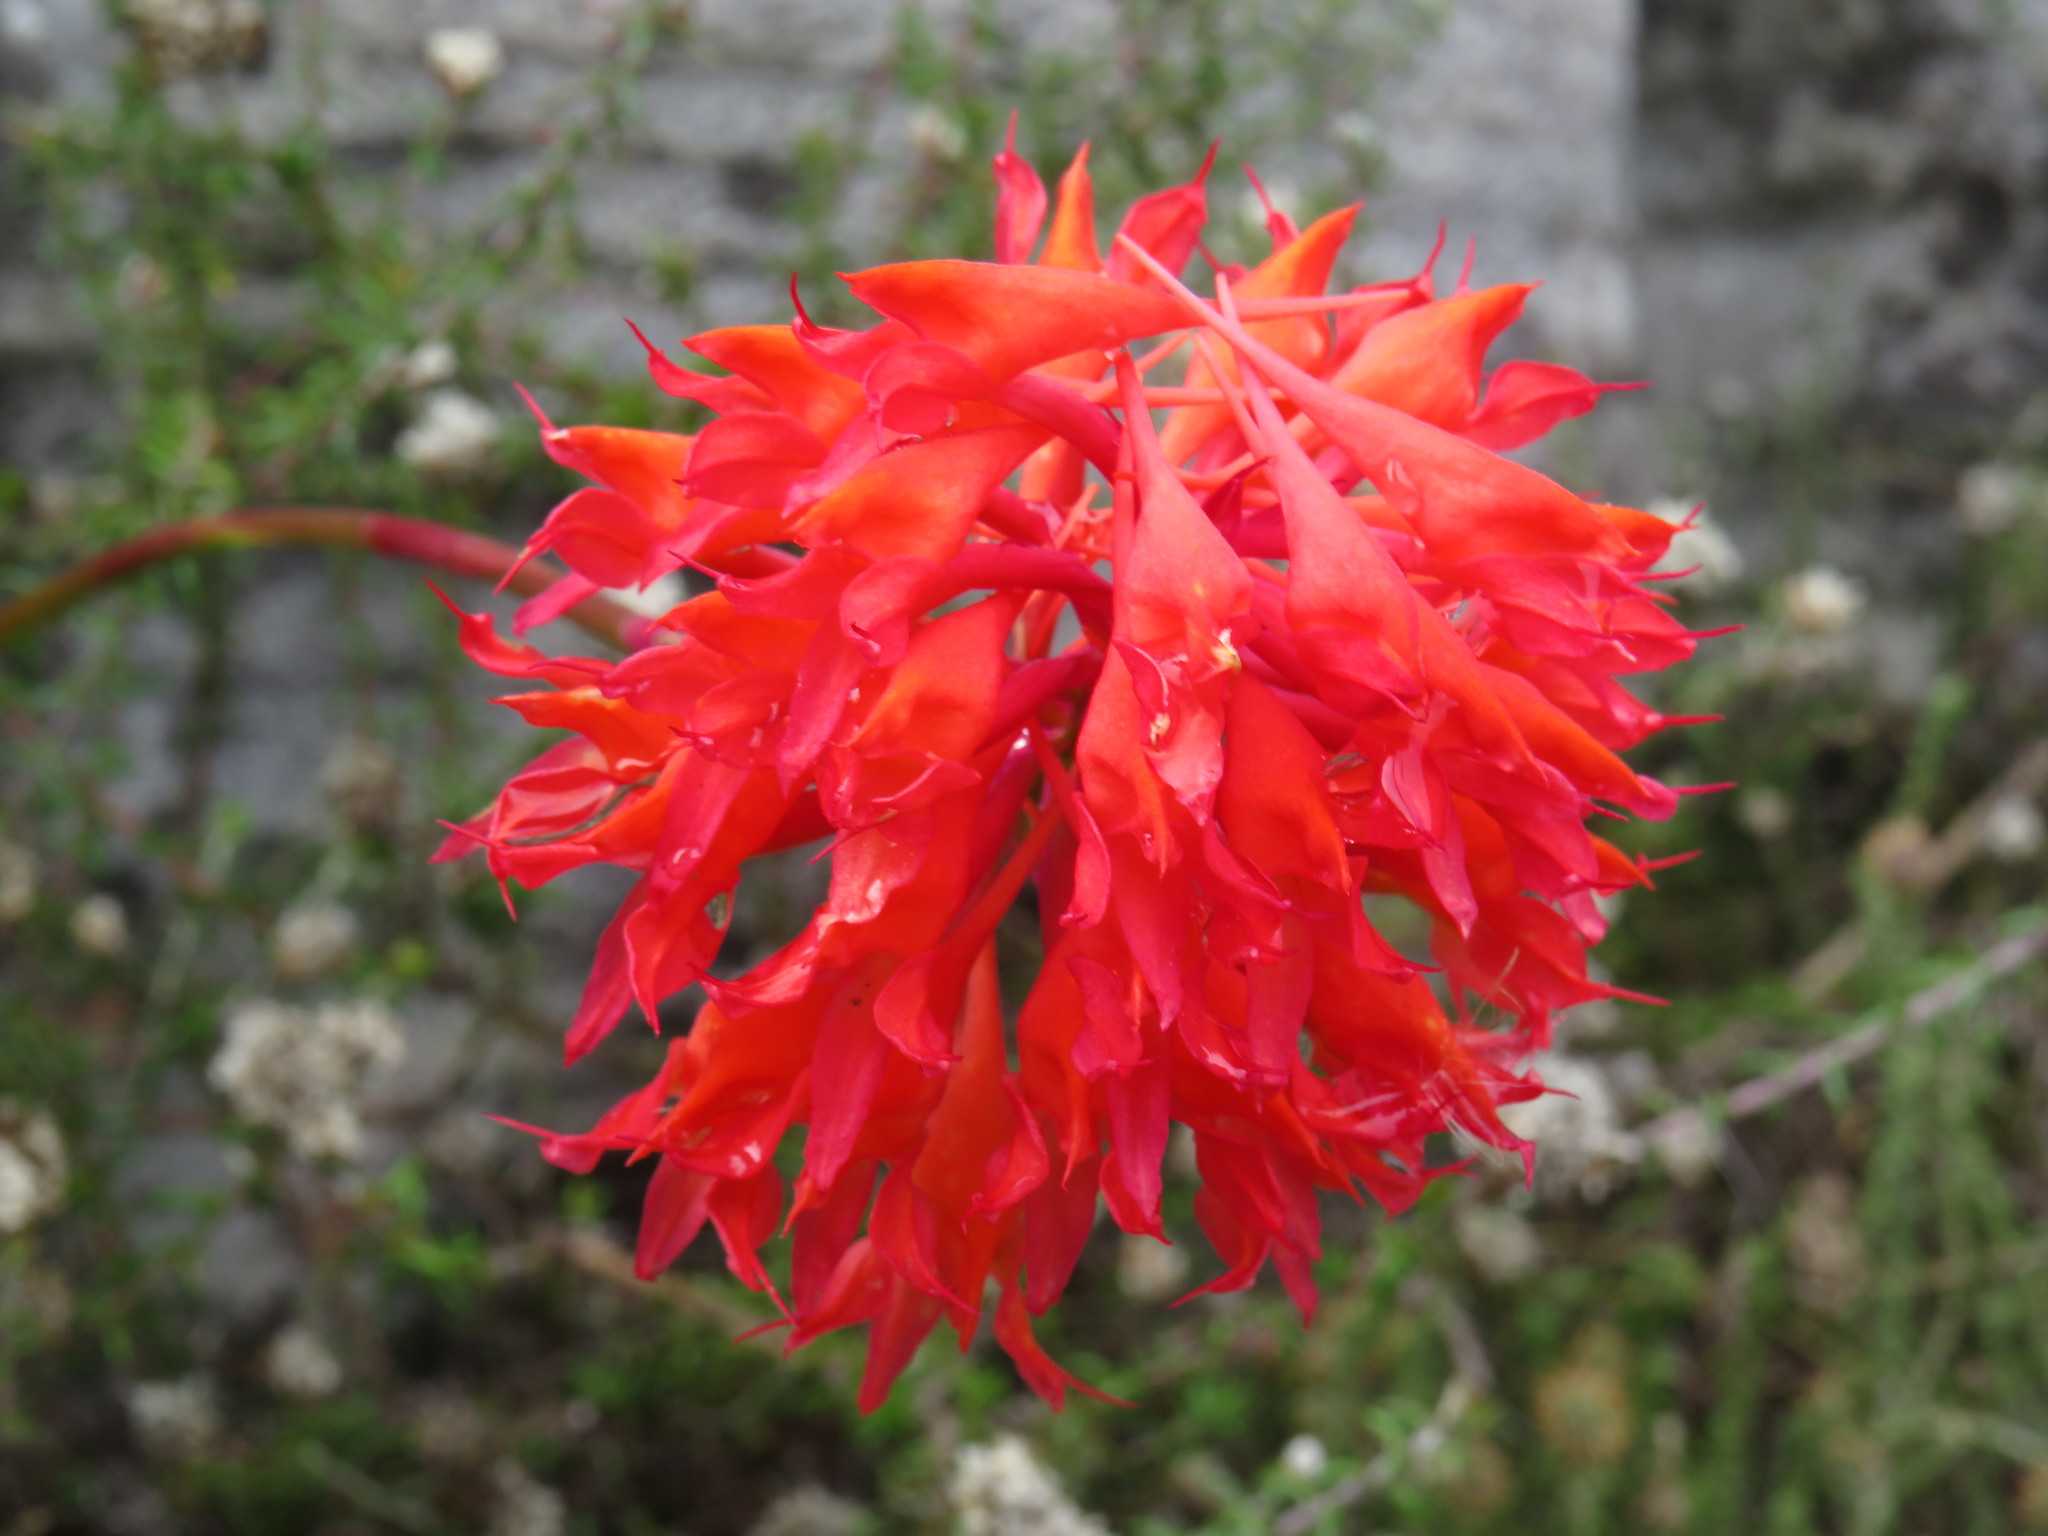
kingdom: Plantae
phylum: Tracheophyta
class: Liliopsida
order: Asparagales
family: Orchidaceae
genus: Disa
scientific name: Disa ferruginea
